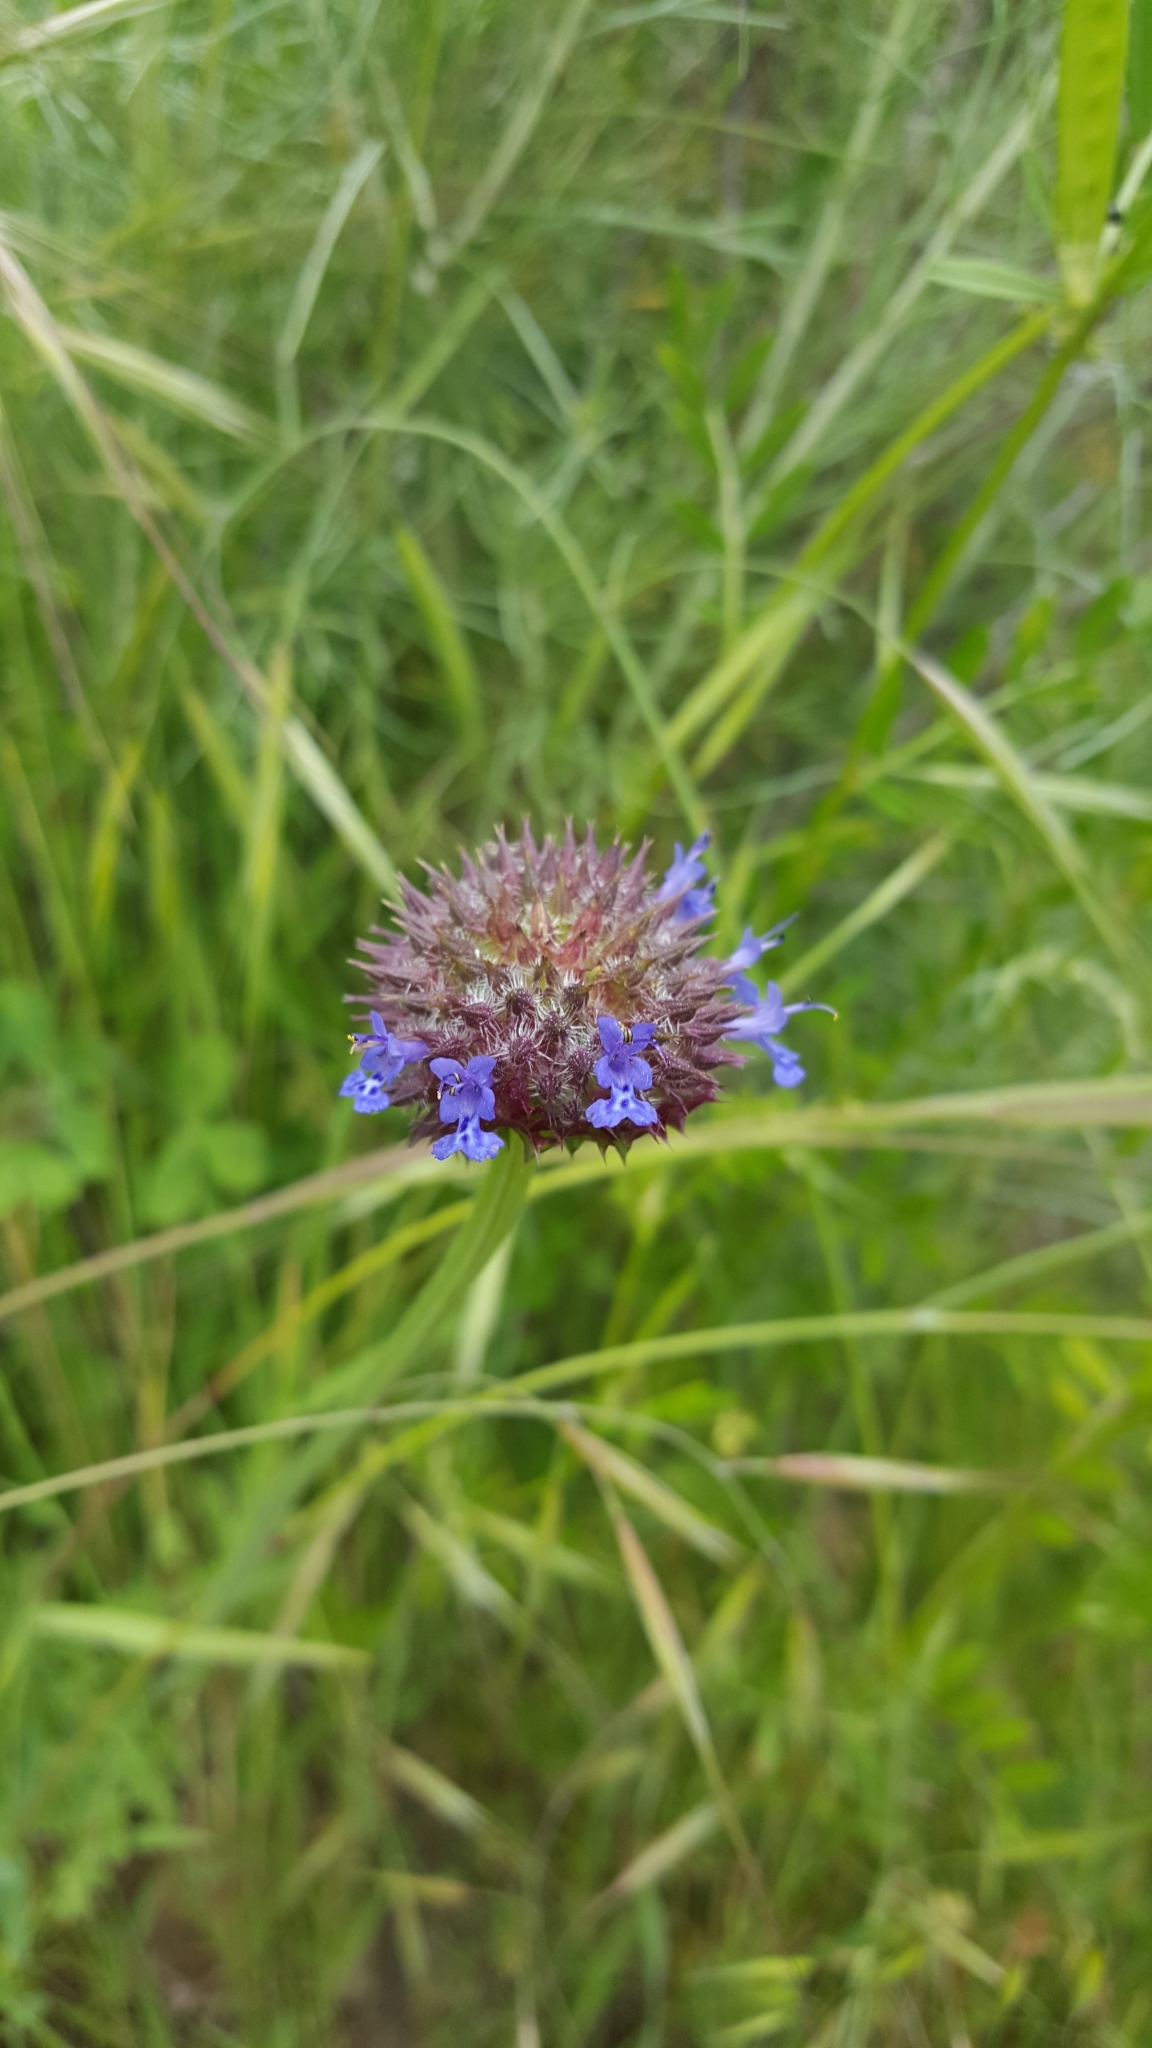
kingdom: Plantae
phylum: Tracheophyta
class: Magnoliopsida
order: Lamiales
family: Lamiaceae
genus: Salvia
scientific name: Salvia columbariae
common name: Chia
